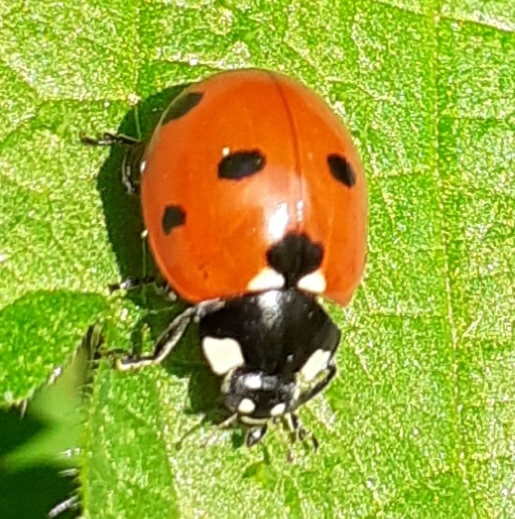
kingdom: Animalia
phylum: Arthropoda
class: Insecta
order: Coleoptera
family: Coccinellidae
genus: Coccinella
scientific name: Coccinella septempunctata
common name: Sevenspotted lady beetle
